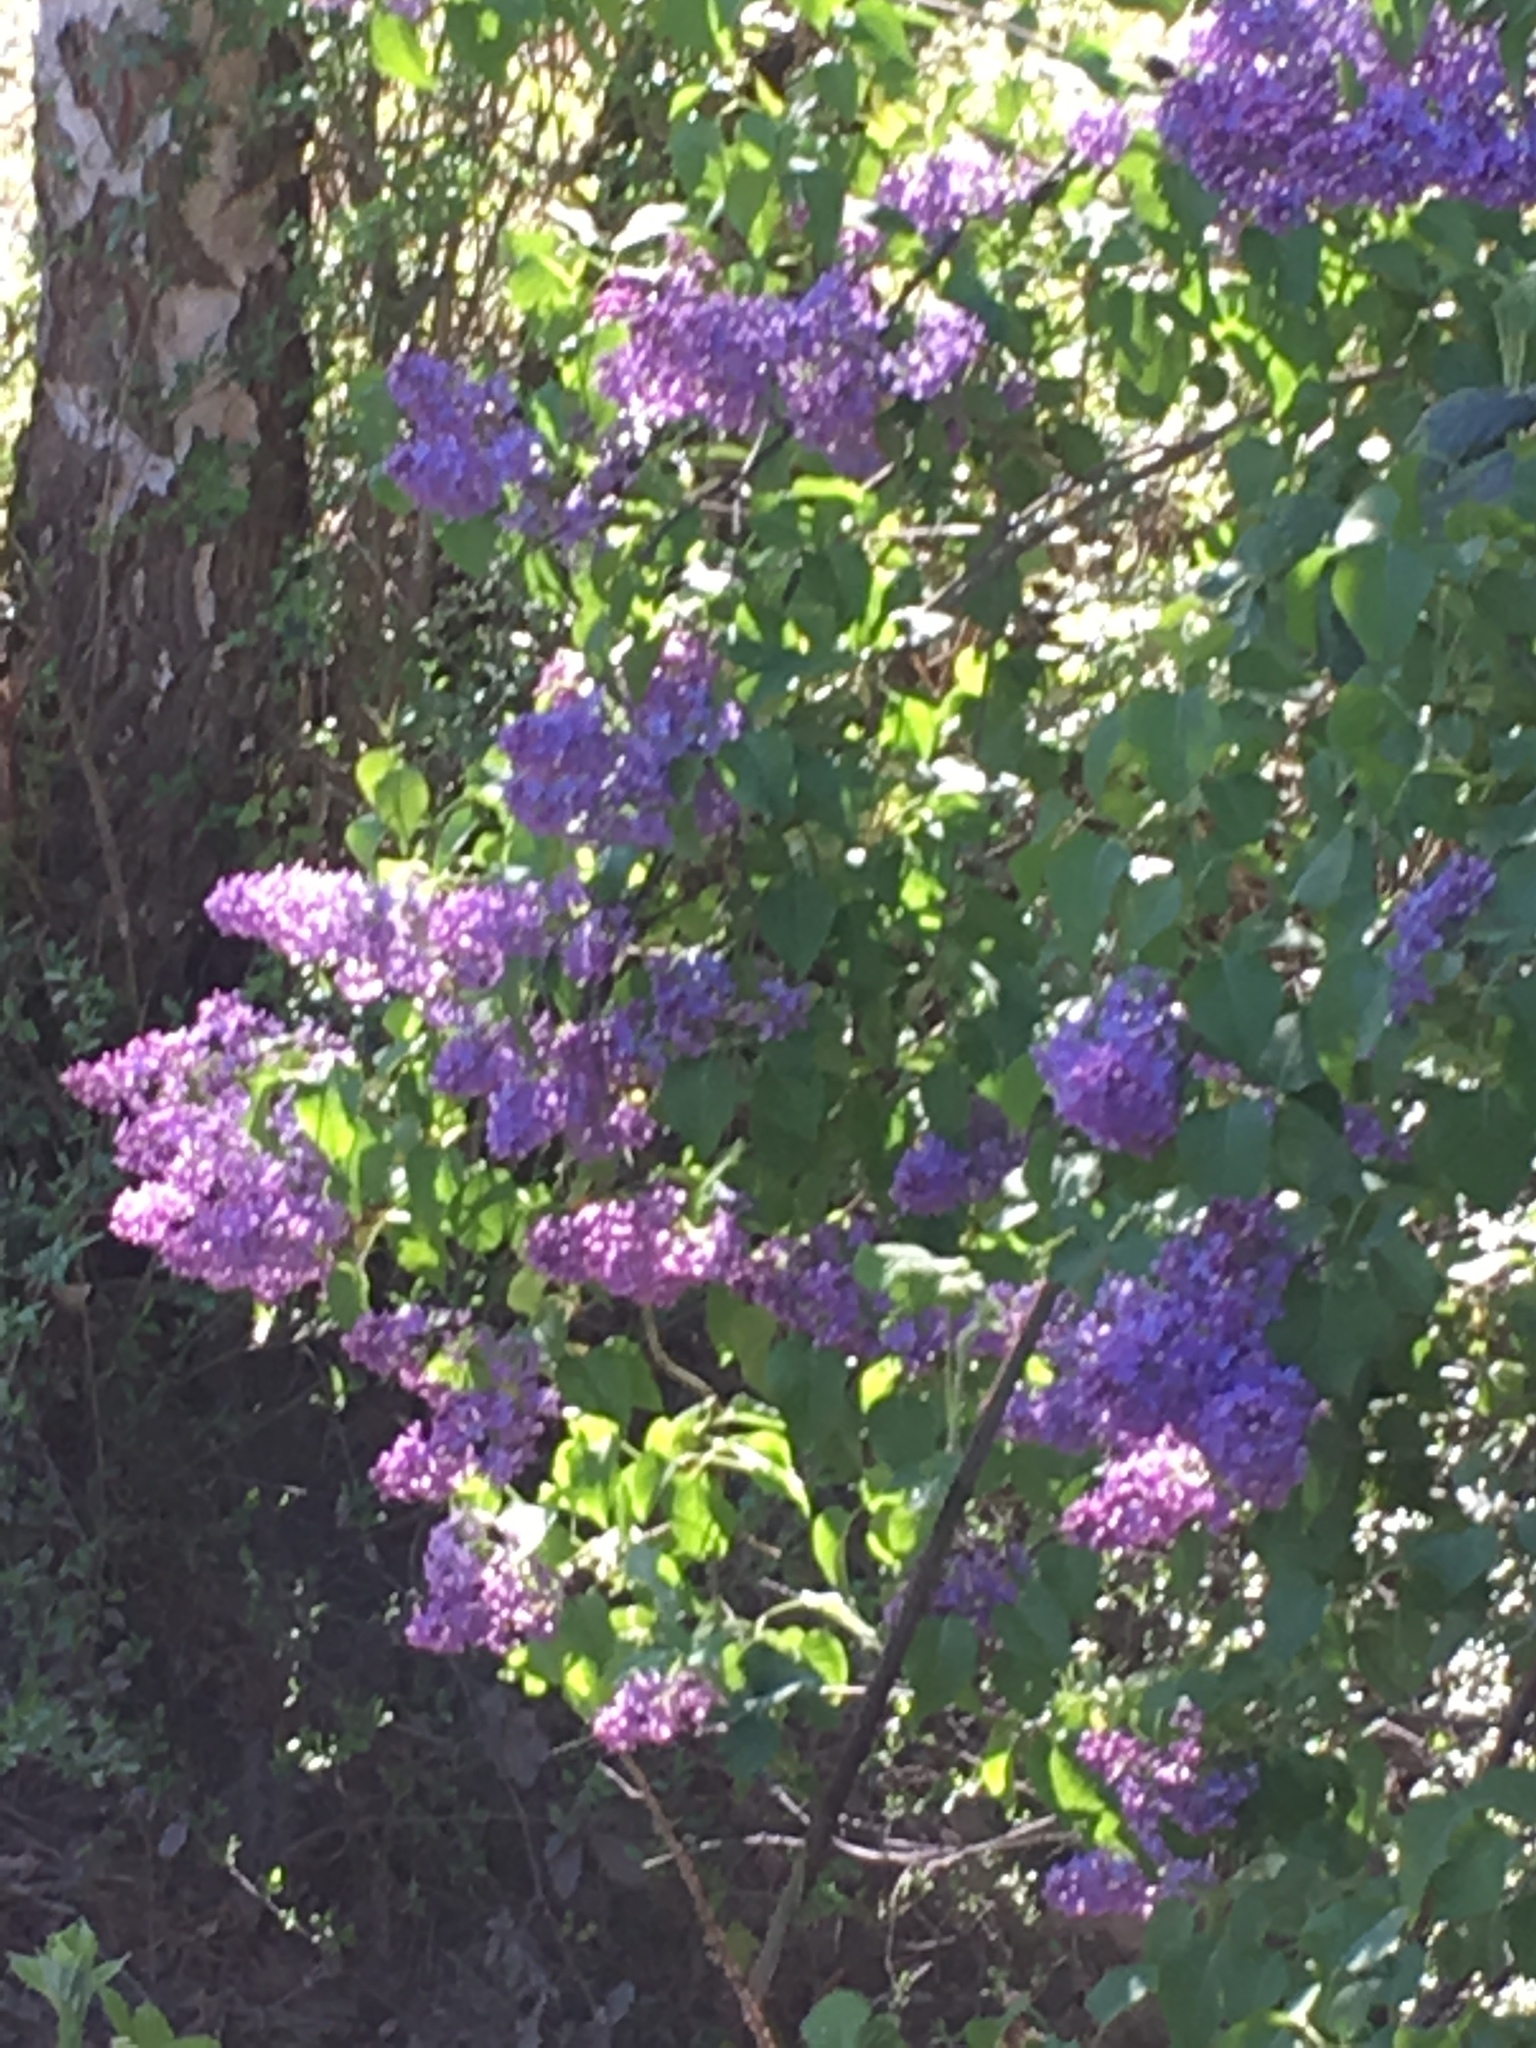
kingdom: Plantae
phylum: Tracheophyta
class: Magnoliopsida
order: Lamiales
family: Oleaceae
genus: Syringa
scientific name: Syringa vulgaris
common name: Common lilac
